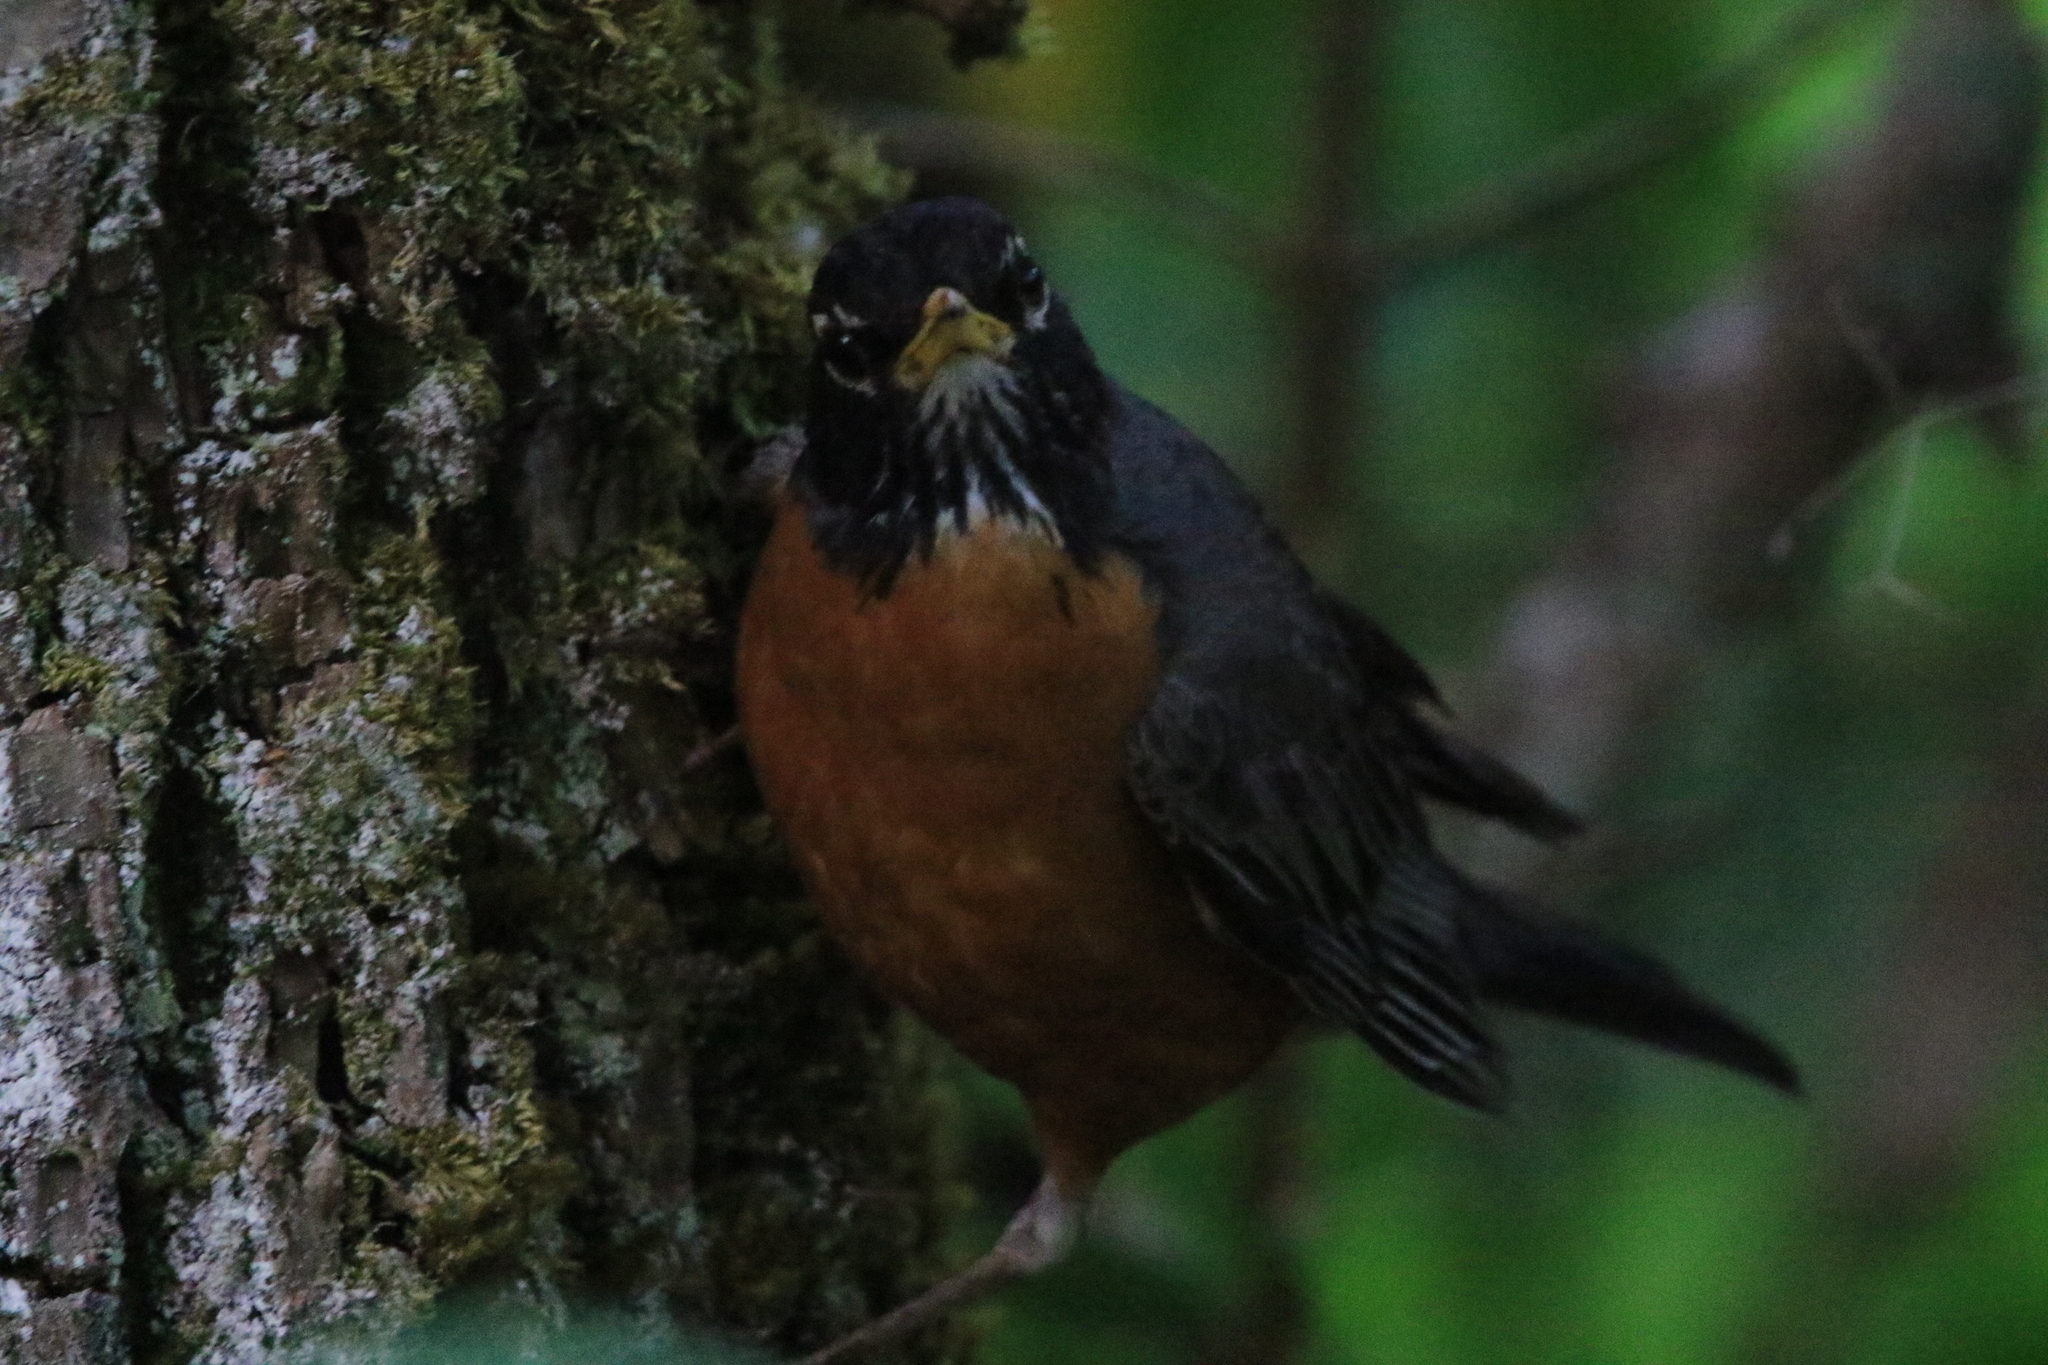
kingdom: Animalia
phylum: Chordata
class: Aves
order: Passeriformes
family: Turdidae
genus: Turdus
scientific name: Turdus migratorius
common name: American robin
